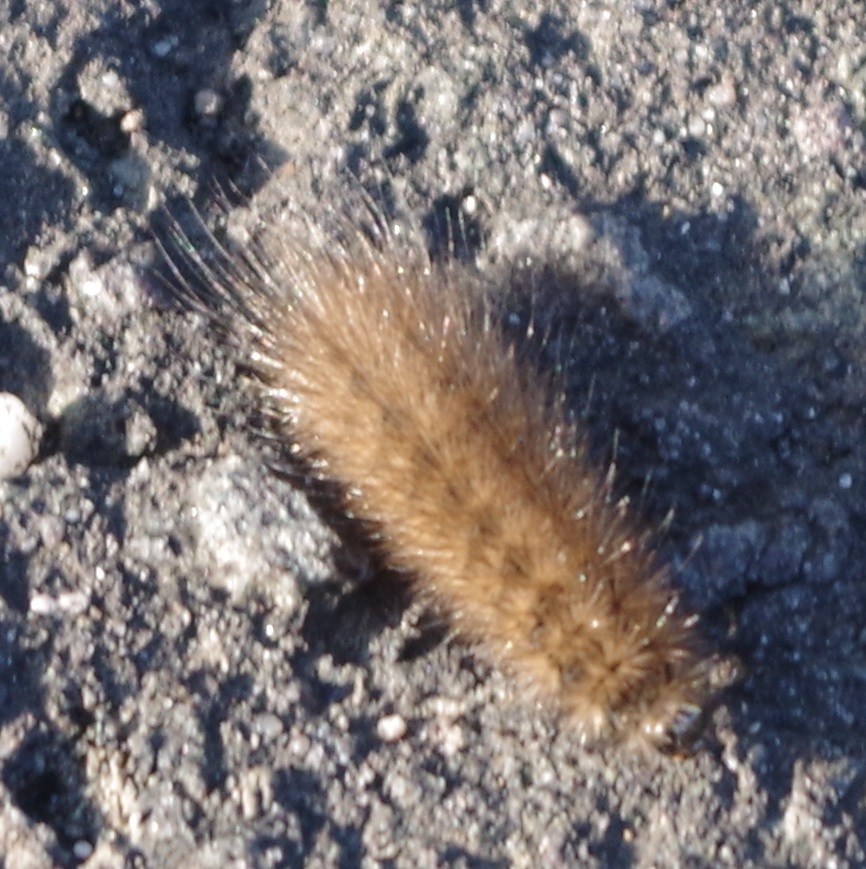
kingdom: Animalia
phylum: Arthropoda
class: Insecta
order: Lepidoptera
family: Erebidae
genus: Phragmatobia
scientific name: Phragmatobia fuliginosa
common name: Ruby tiger
